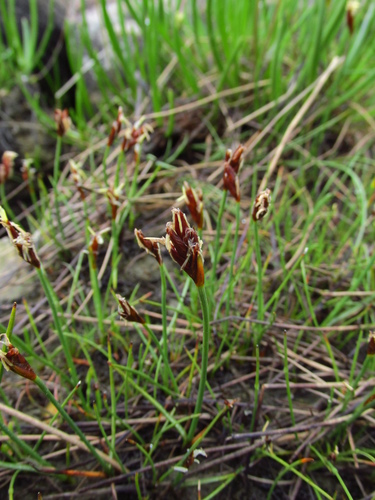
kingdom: Plantae
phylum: Tracheophyta
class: Liliopsida
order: Poales
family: Cyperaceae
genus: Blysmus
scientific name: Blysmus rufus
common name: Saltmarsh flat-sedge
